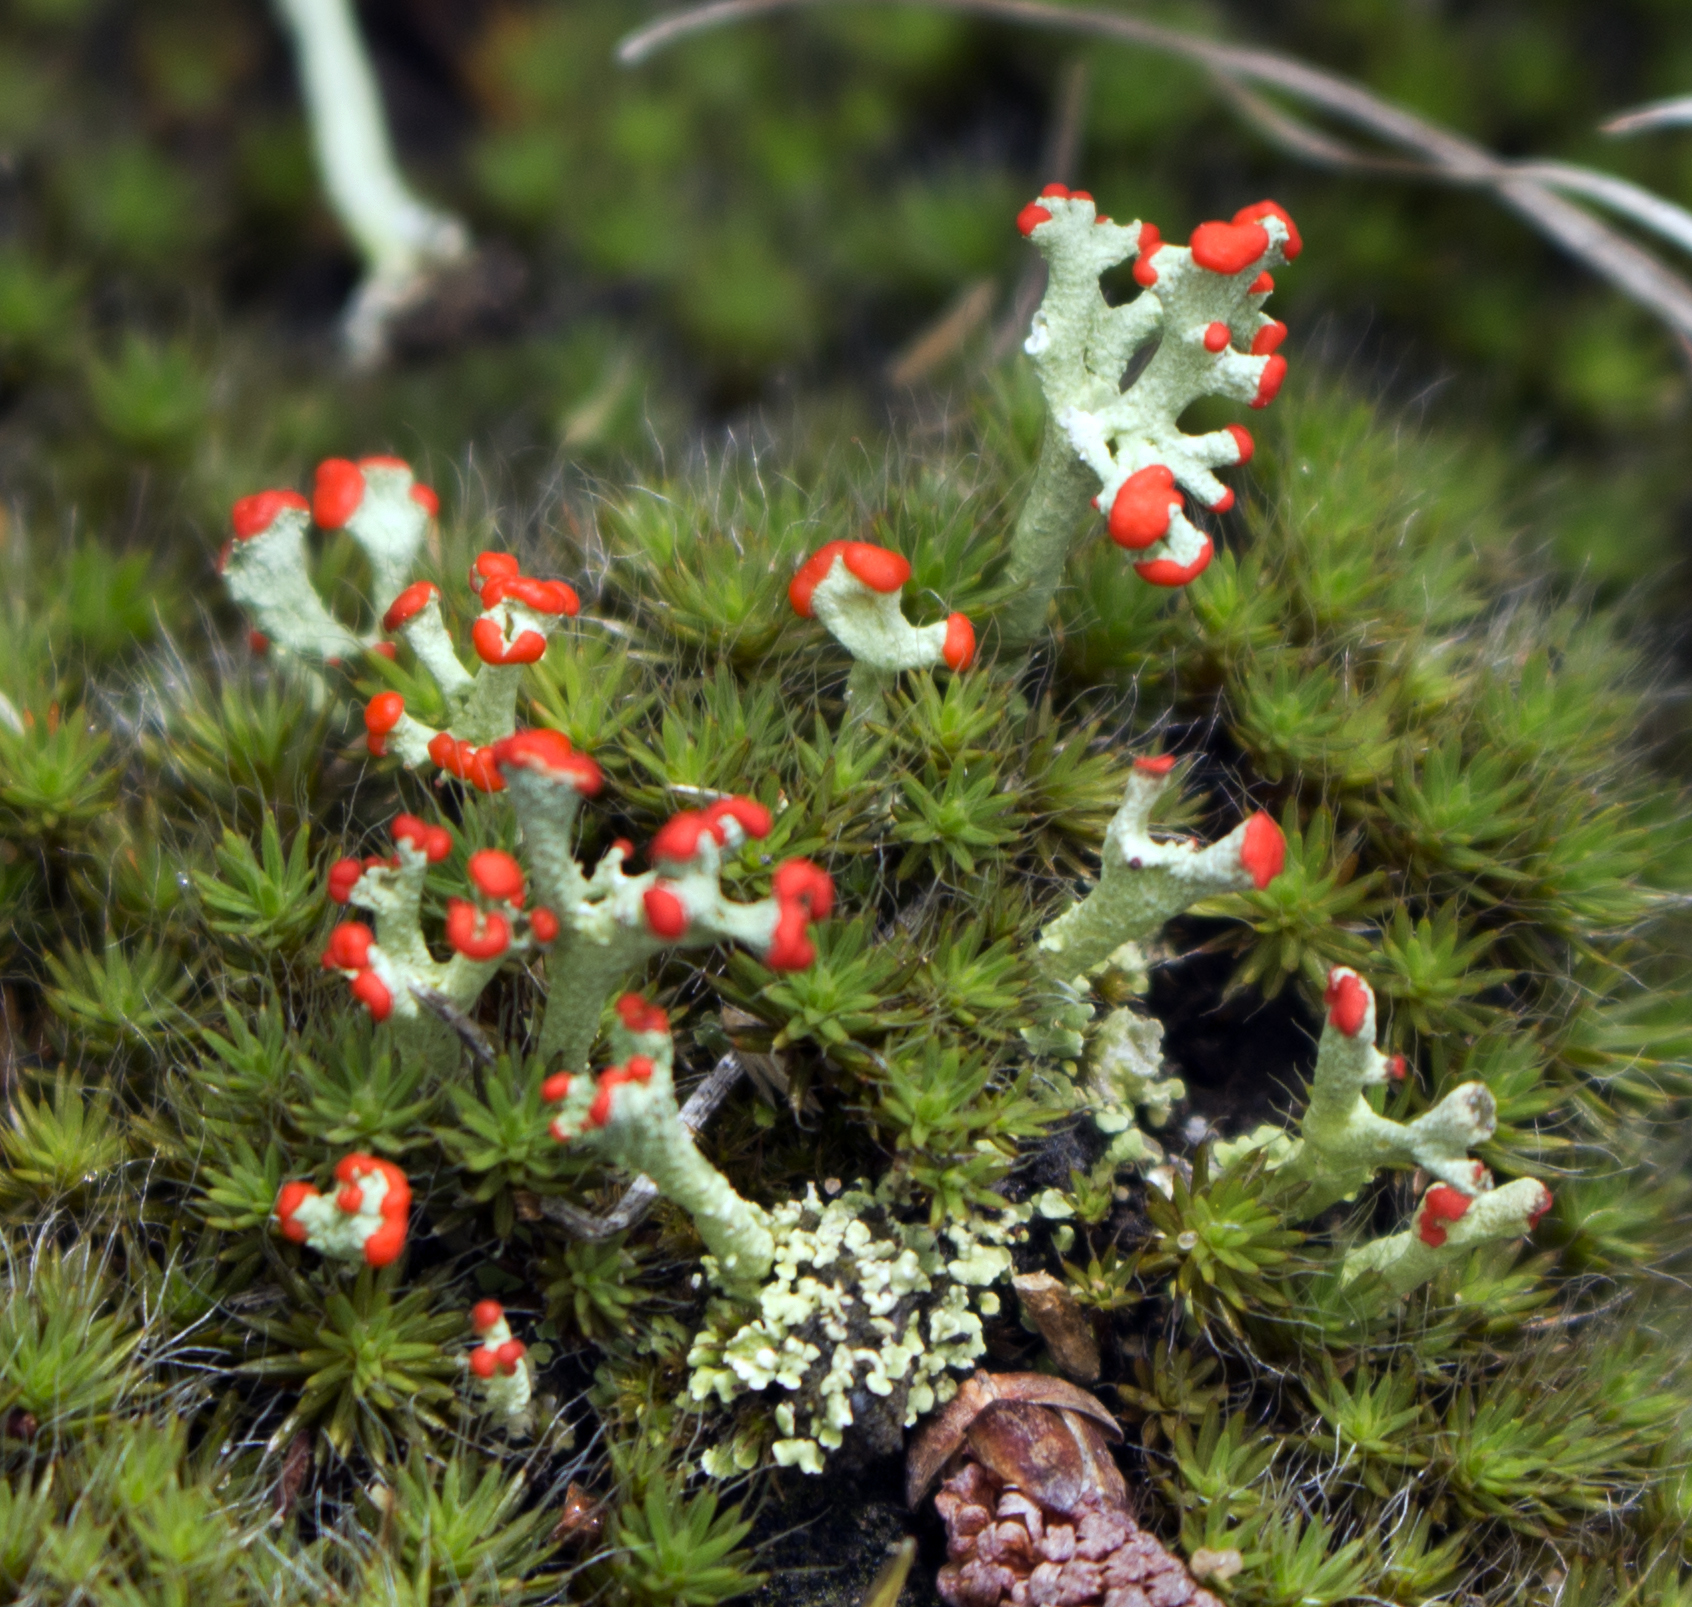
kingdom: Fungi
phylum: Ascomycota
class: Lecanoromycetes
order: Lecanorales
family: Cladoniaceae
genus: Cladonia
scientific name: Cladonia cristatella
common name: British soldier lichen
